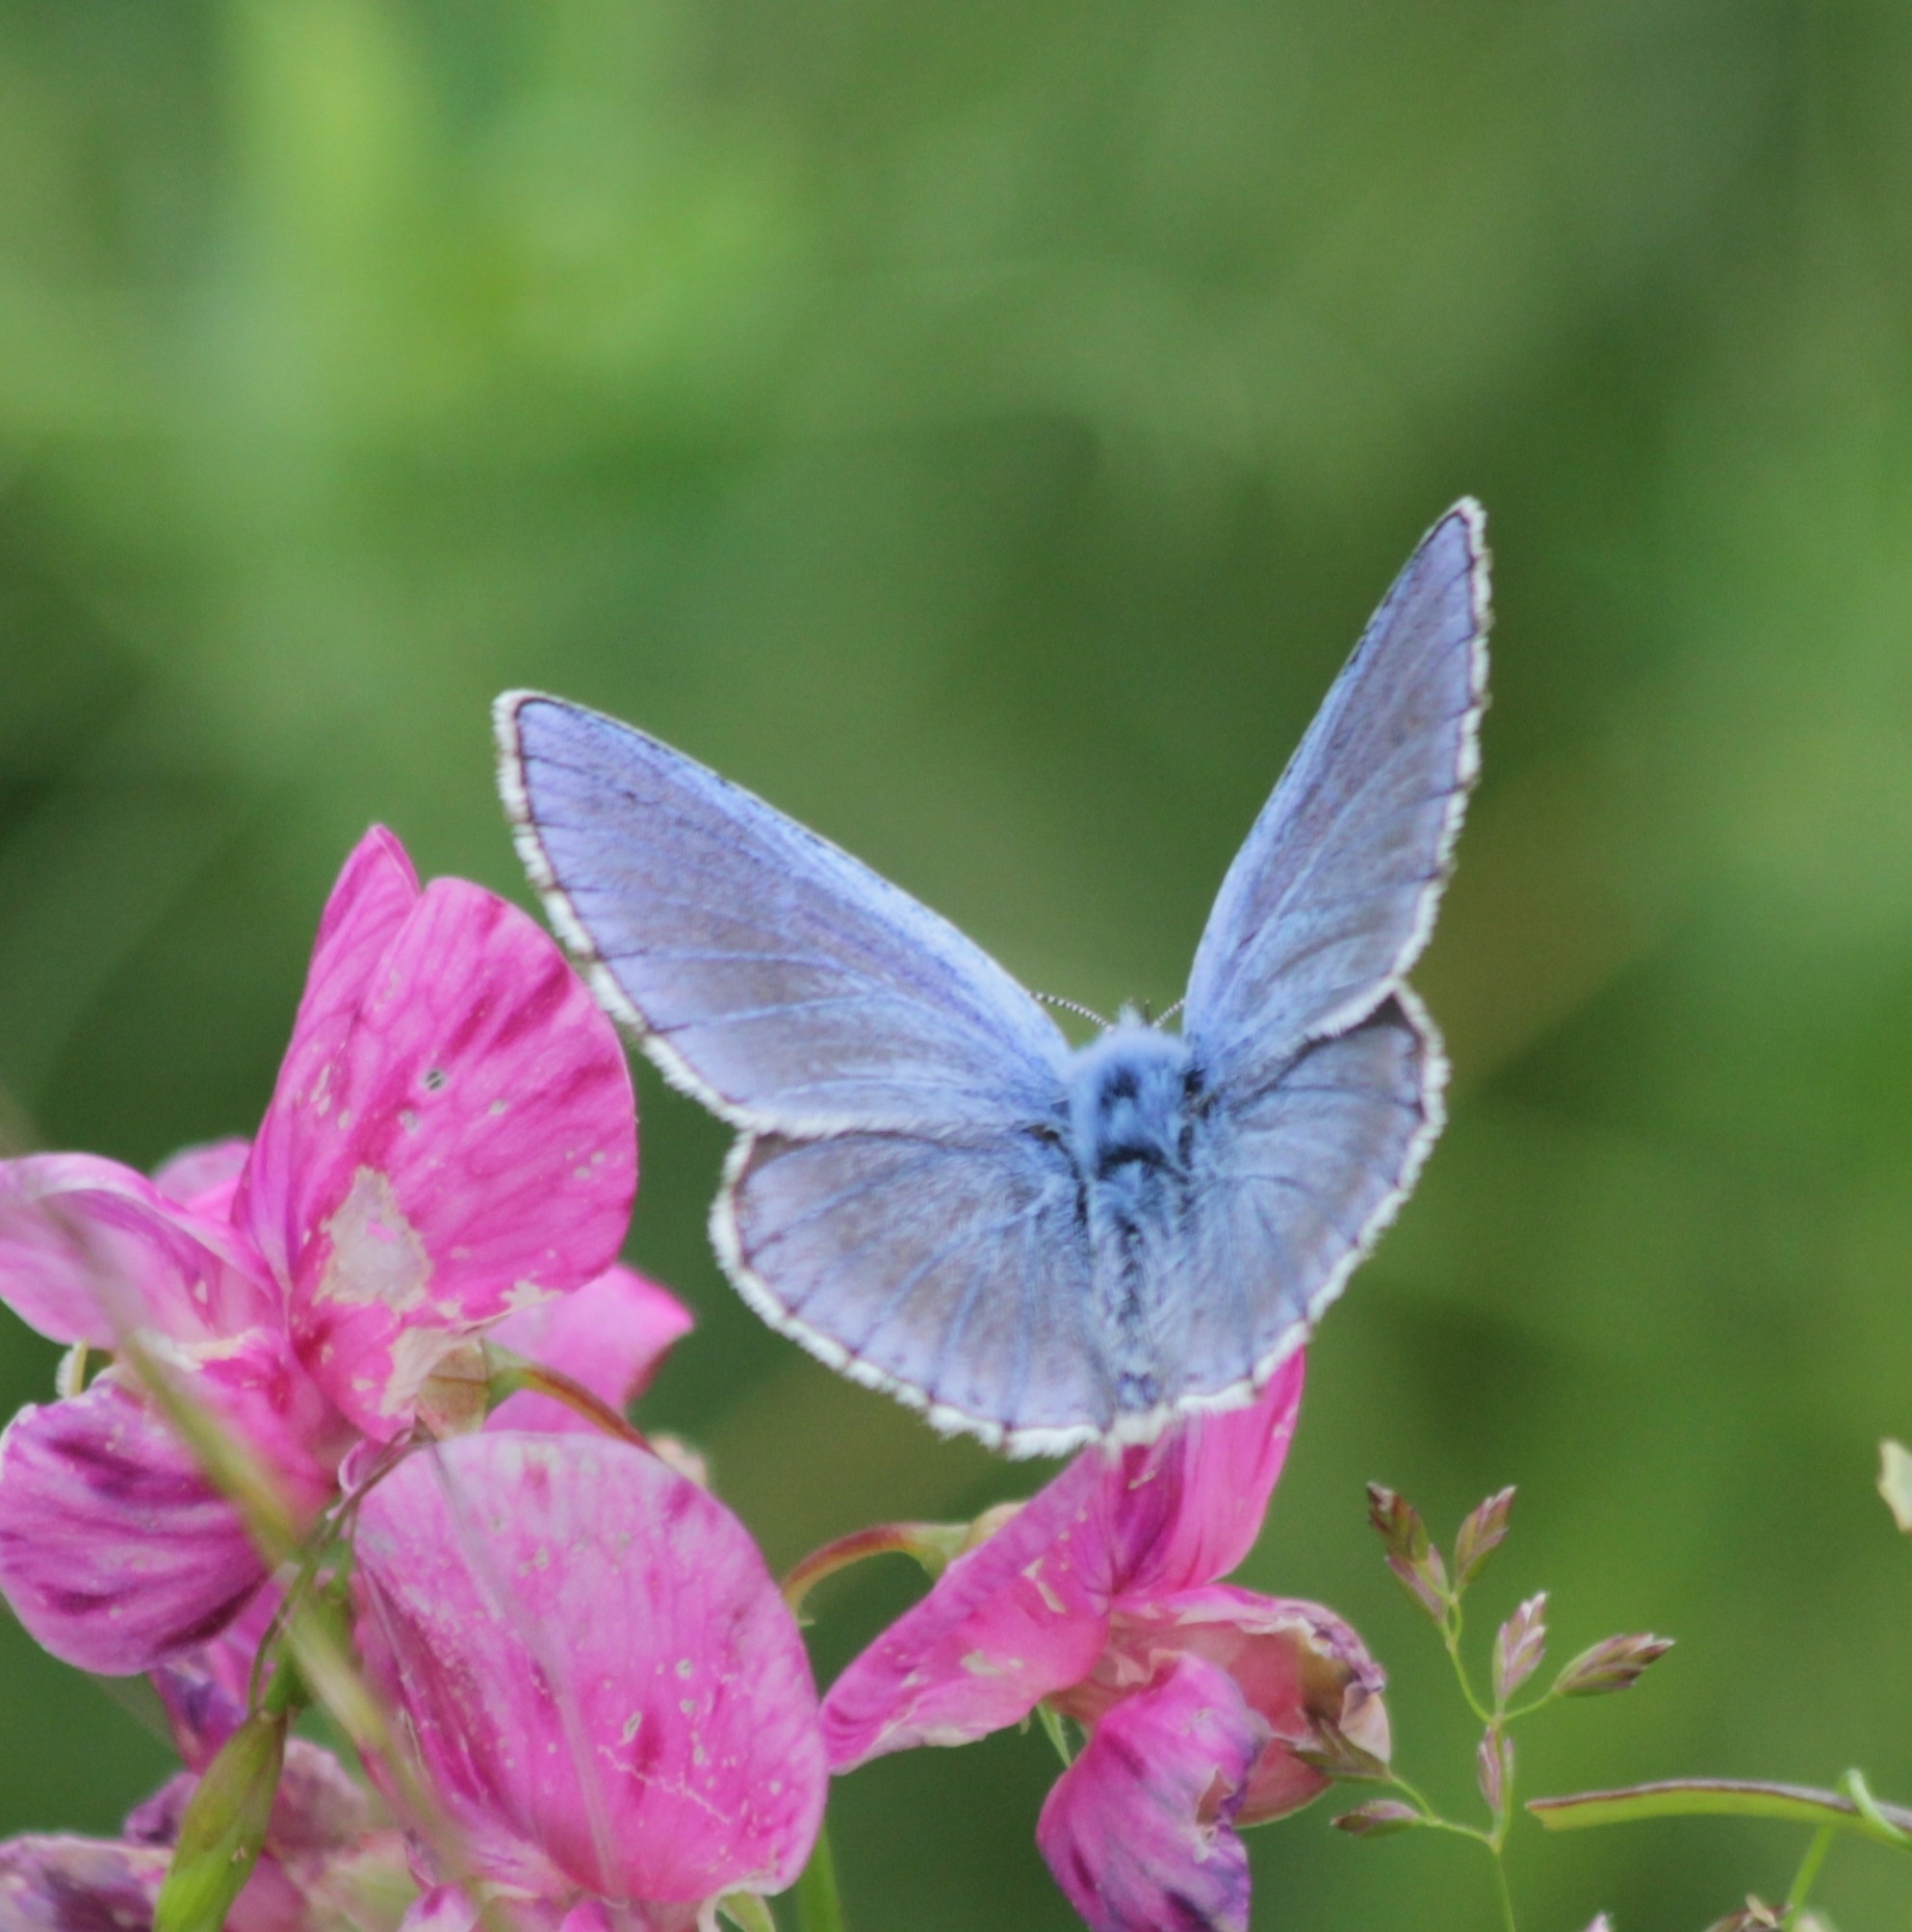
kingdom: Animalia
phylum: Arthropoda
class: Insecta
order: Lepidoptera
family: Lycaenidae
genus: Polyommatus
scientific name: Polyommatus icarus
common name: Common blue
